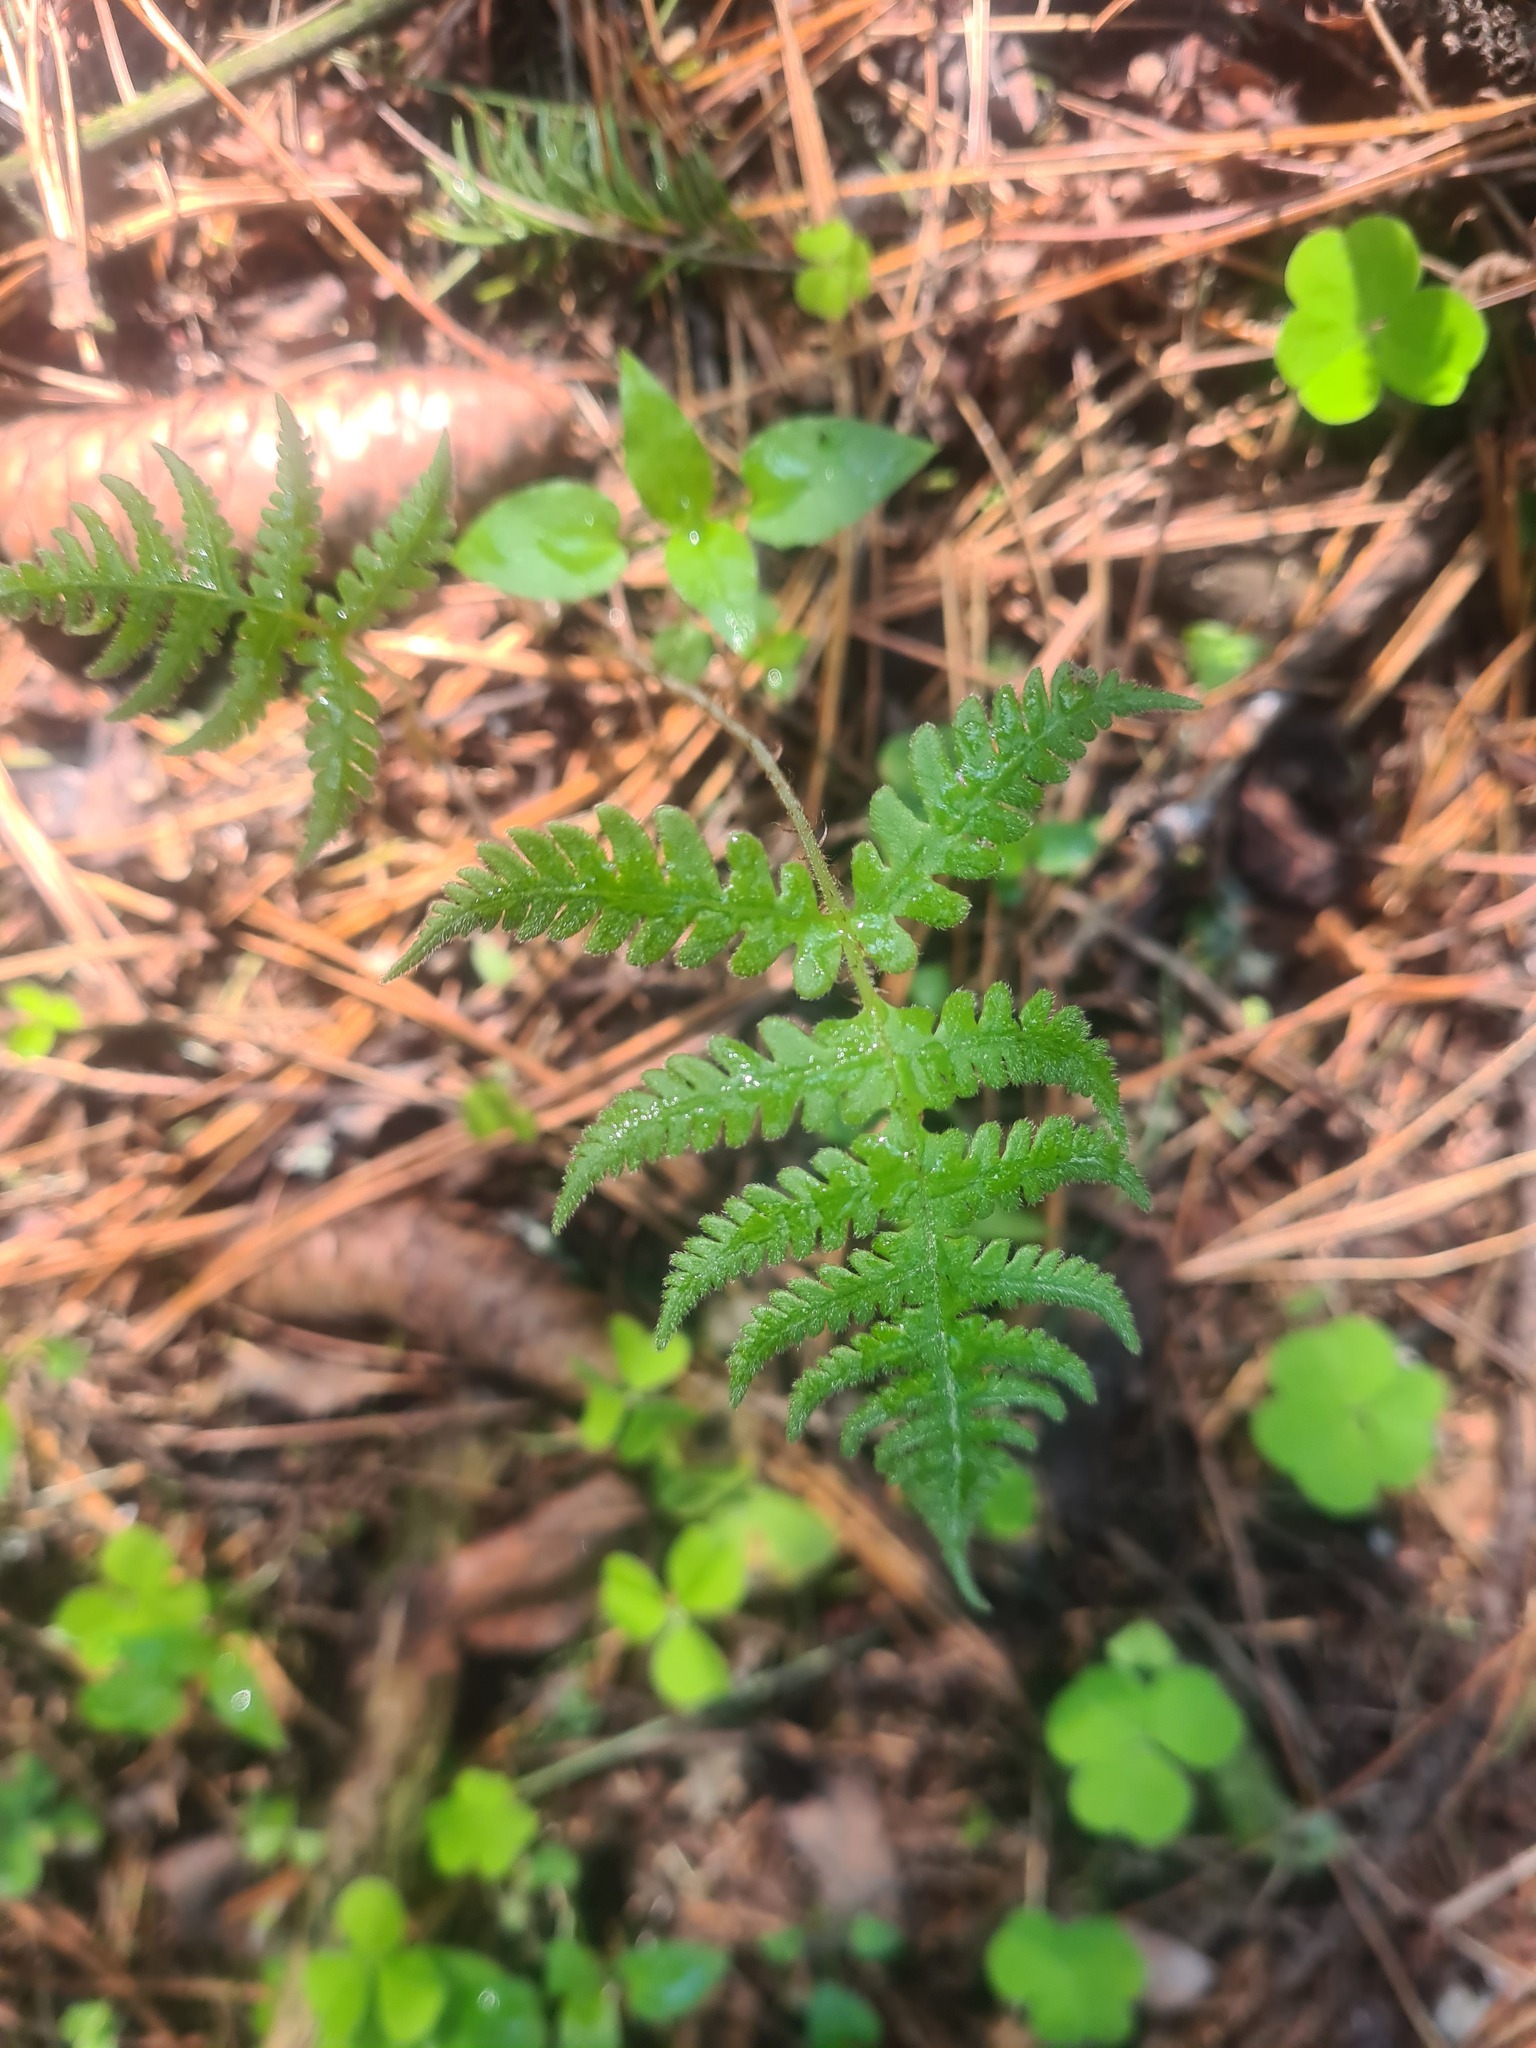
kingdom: Plantae
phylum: Tracheophyta
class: Polypodiopsida
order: Polypodiales
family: Thelypteridaceae
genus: Phegopteris
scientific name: Phegopteris connectilis
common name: Beech fern
